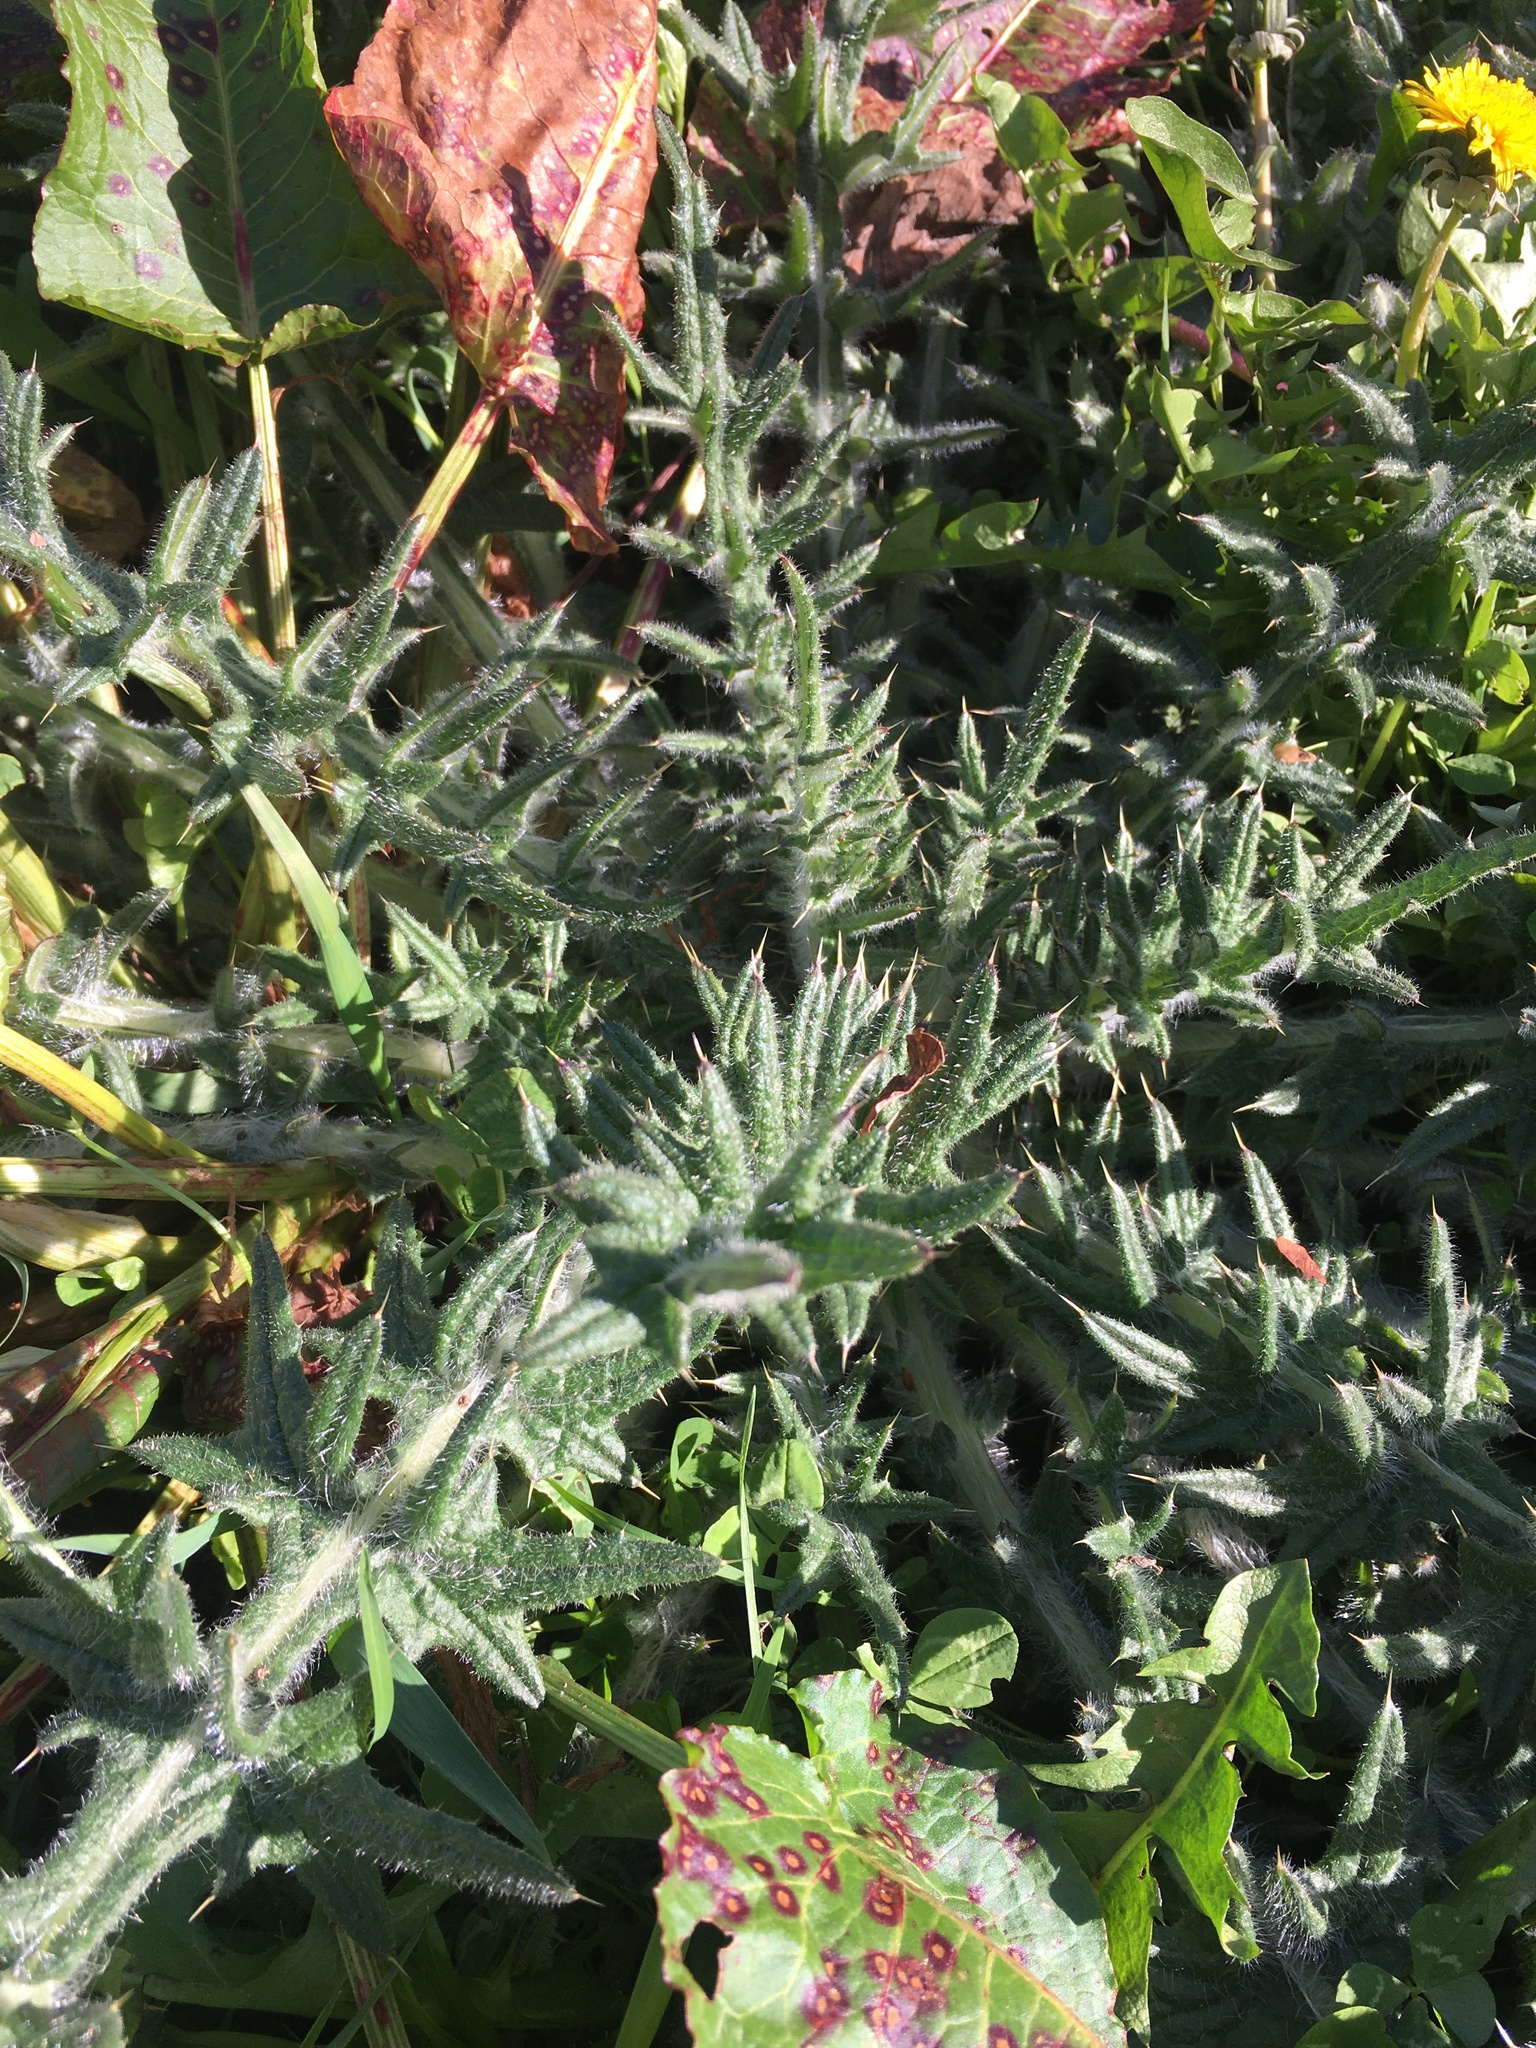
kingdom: Plantae
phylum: Tracheophyta
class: Magnoliopsida
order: Asterales
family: Asteraceae
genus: Cirsium
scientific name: Cirsium vulgare
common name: Bull thistle
